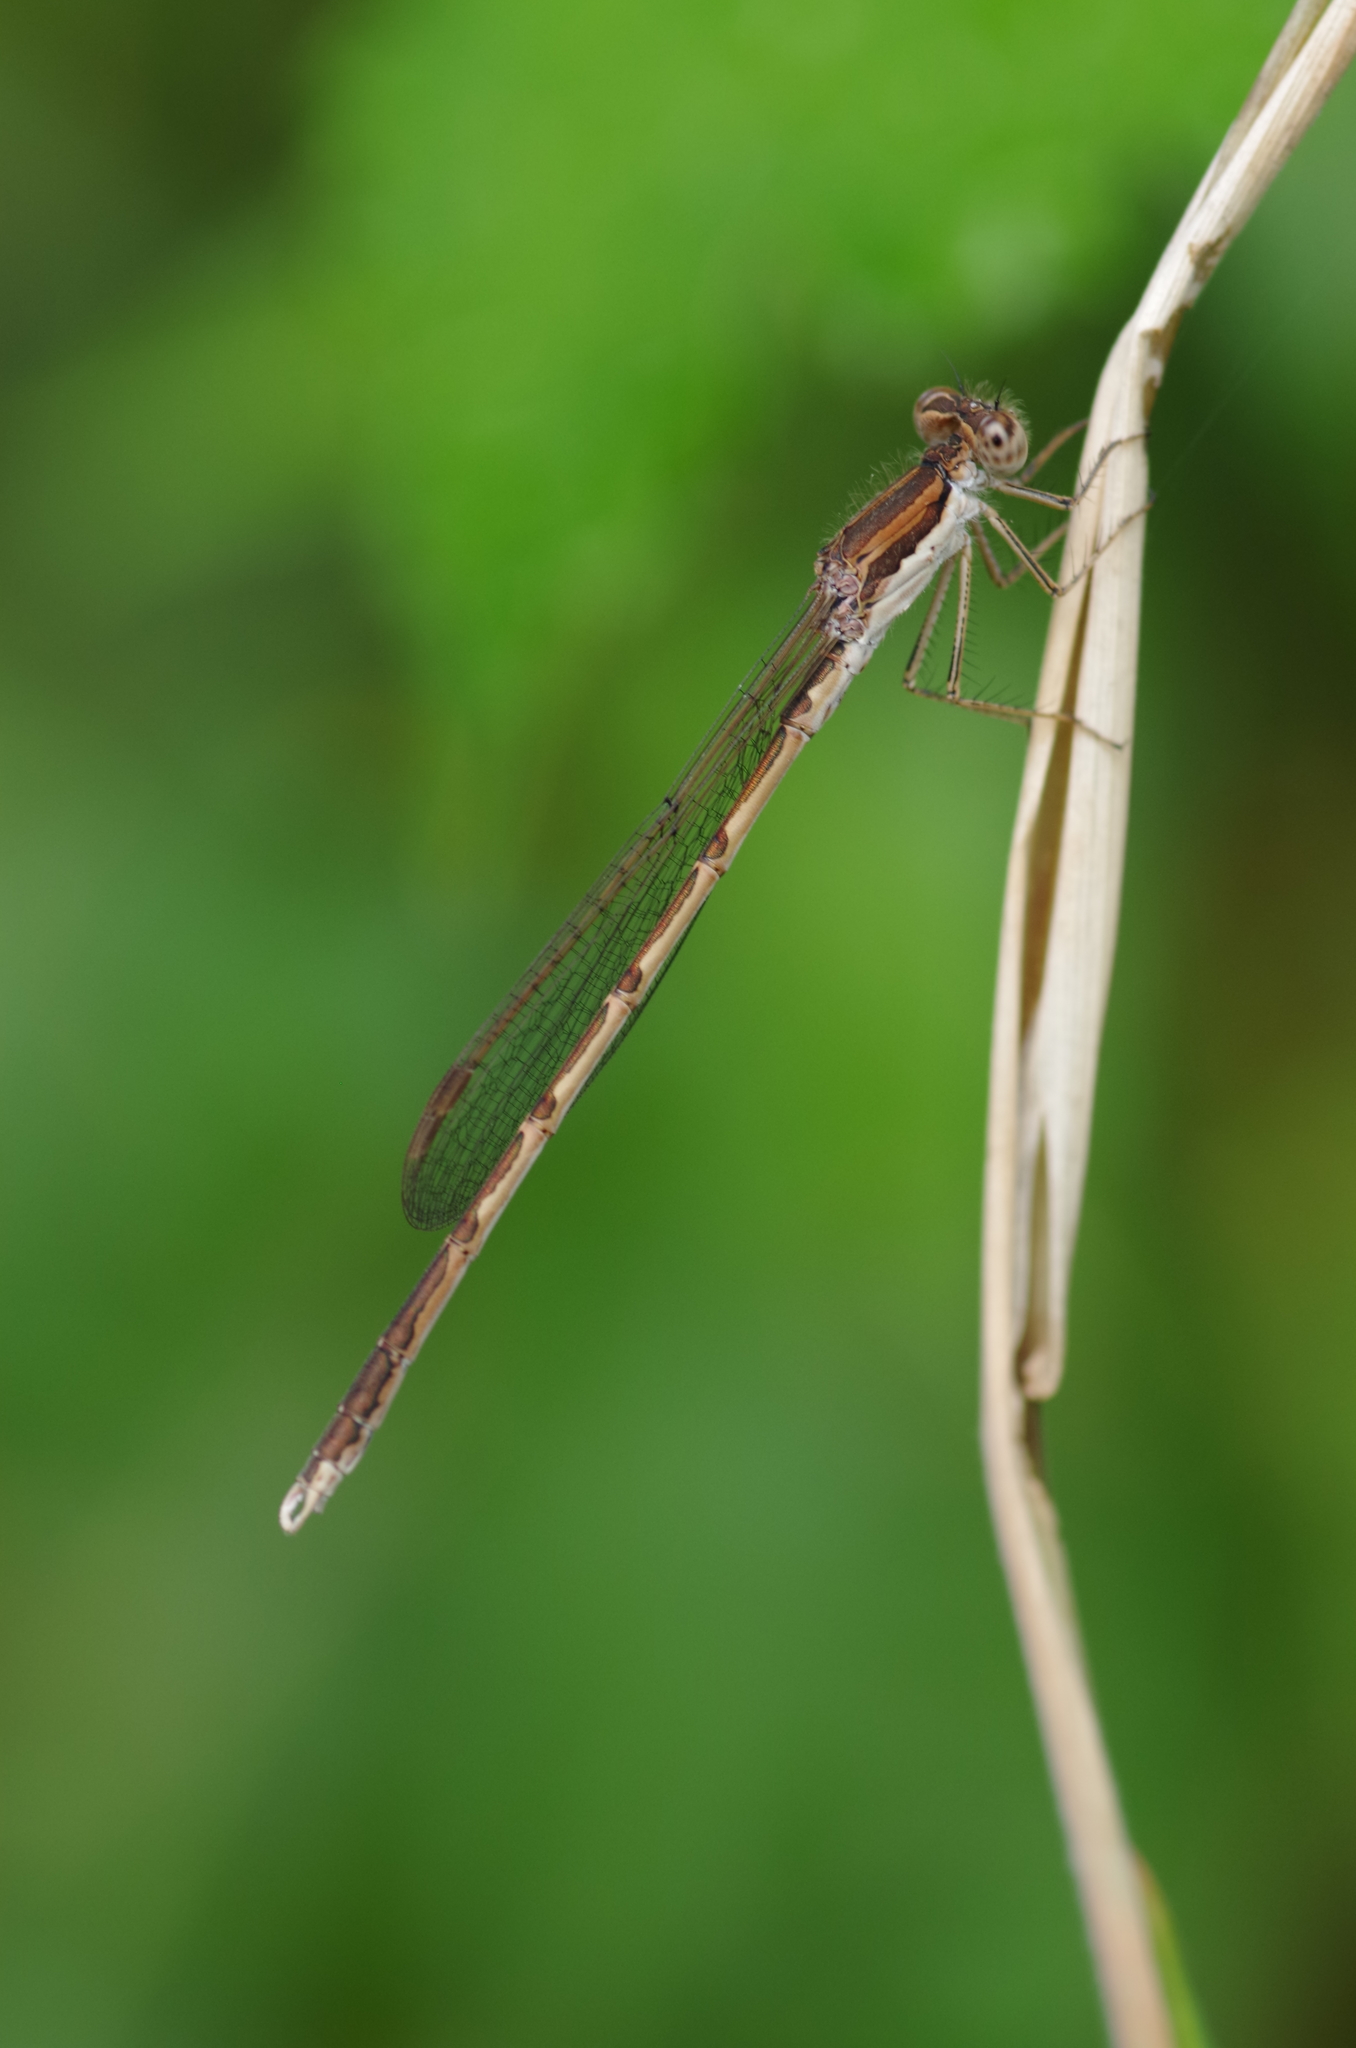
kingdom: Animalia
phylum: Arthropoda
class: Insecta
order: Odonata
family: Lestidae
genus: Sympecma
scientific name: Sympecma fusca
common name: Common winter damsel
